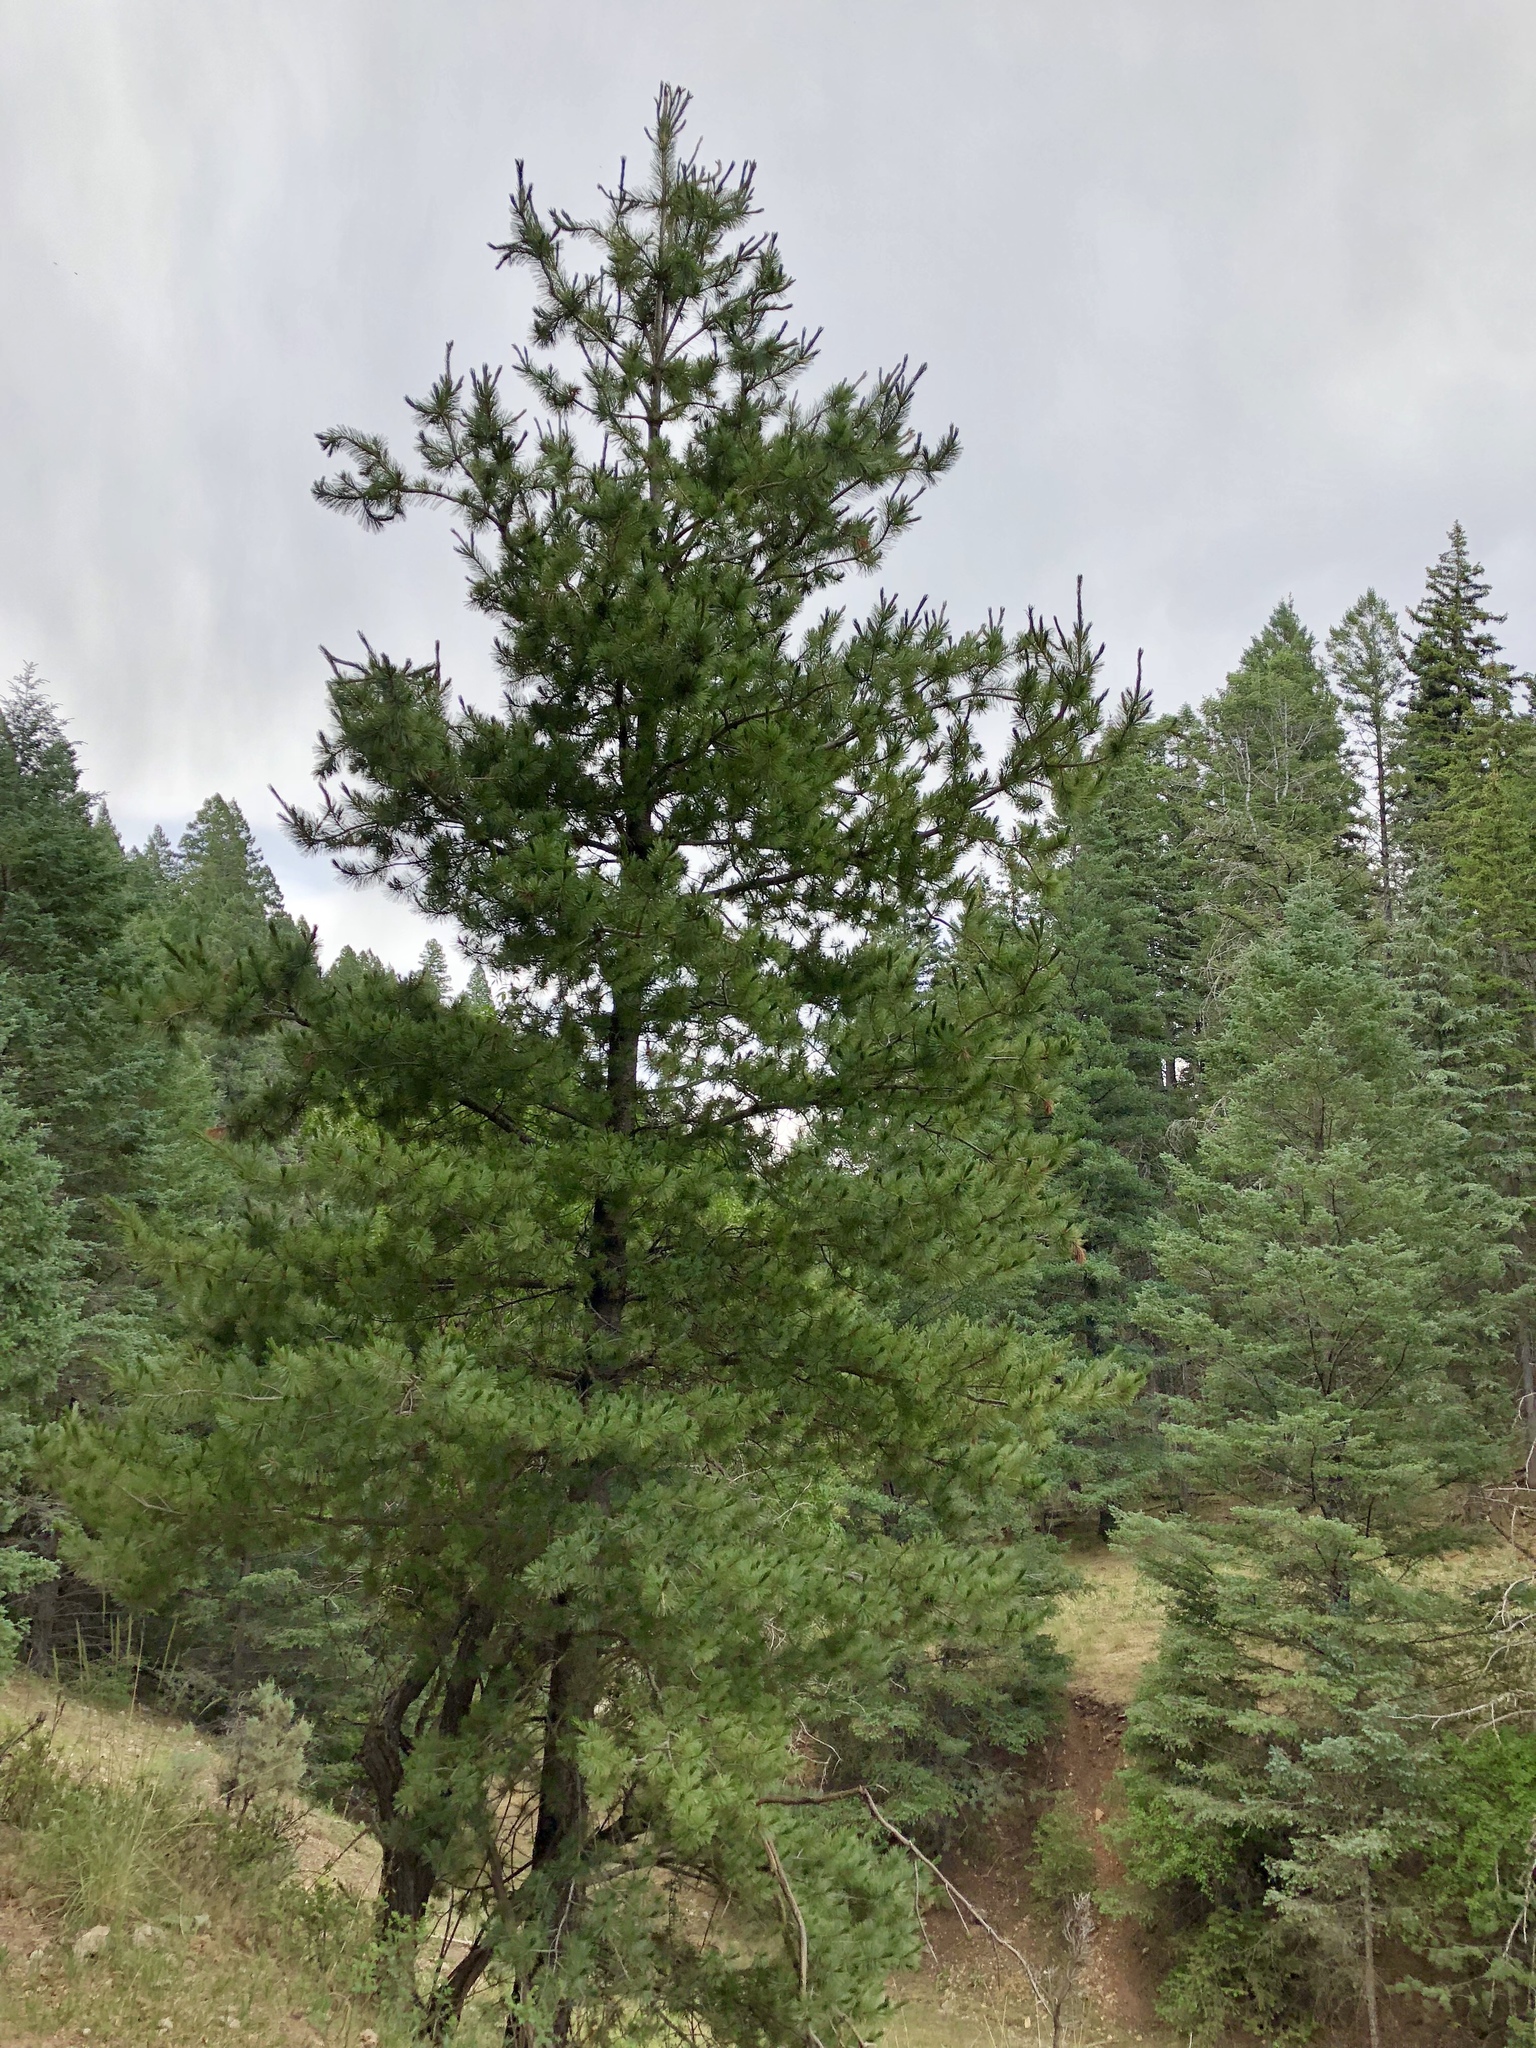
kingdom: Plantae
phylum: Tracheophyta
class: Pinopsida
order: Pinales
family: Pinaceae
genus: Pinus
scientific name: Pinus strobiformis
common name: Southwestern white pine
